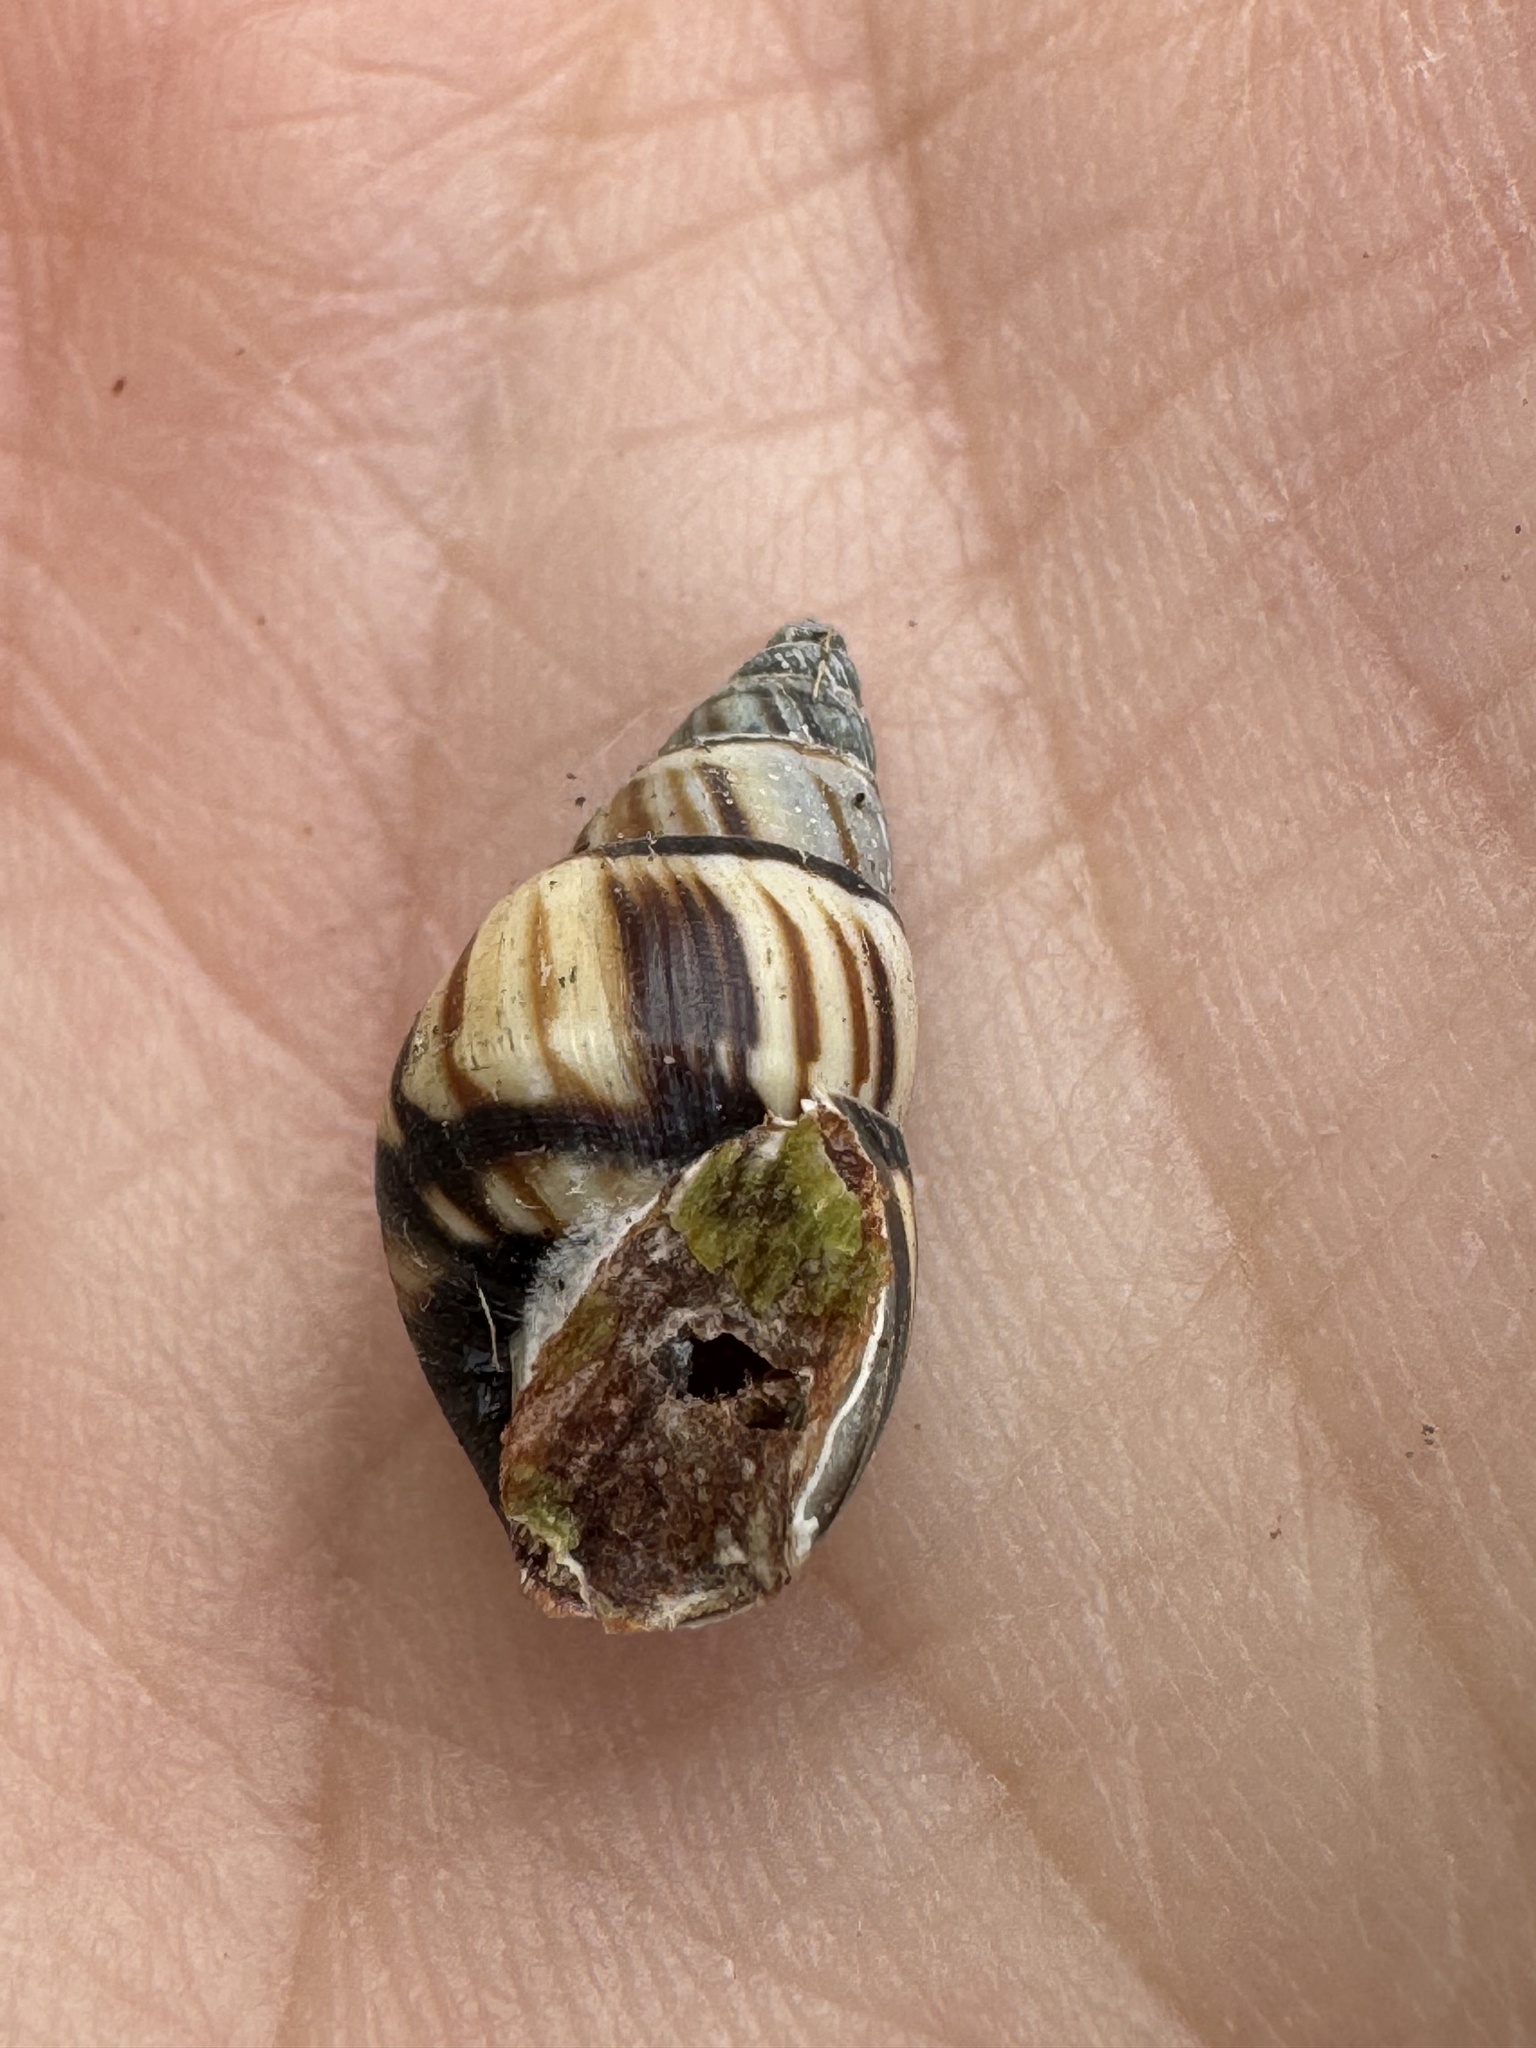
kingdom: Animalia
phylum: Mollusca
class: Gastropoda
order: Stylommatophora
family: Bulimulidae
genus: Drymaeus
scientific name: Drymaeus
